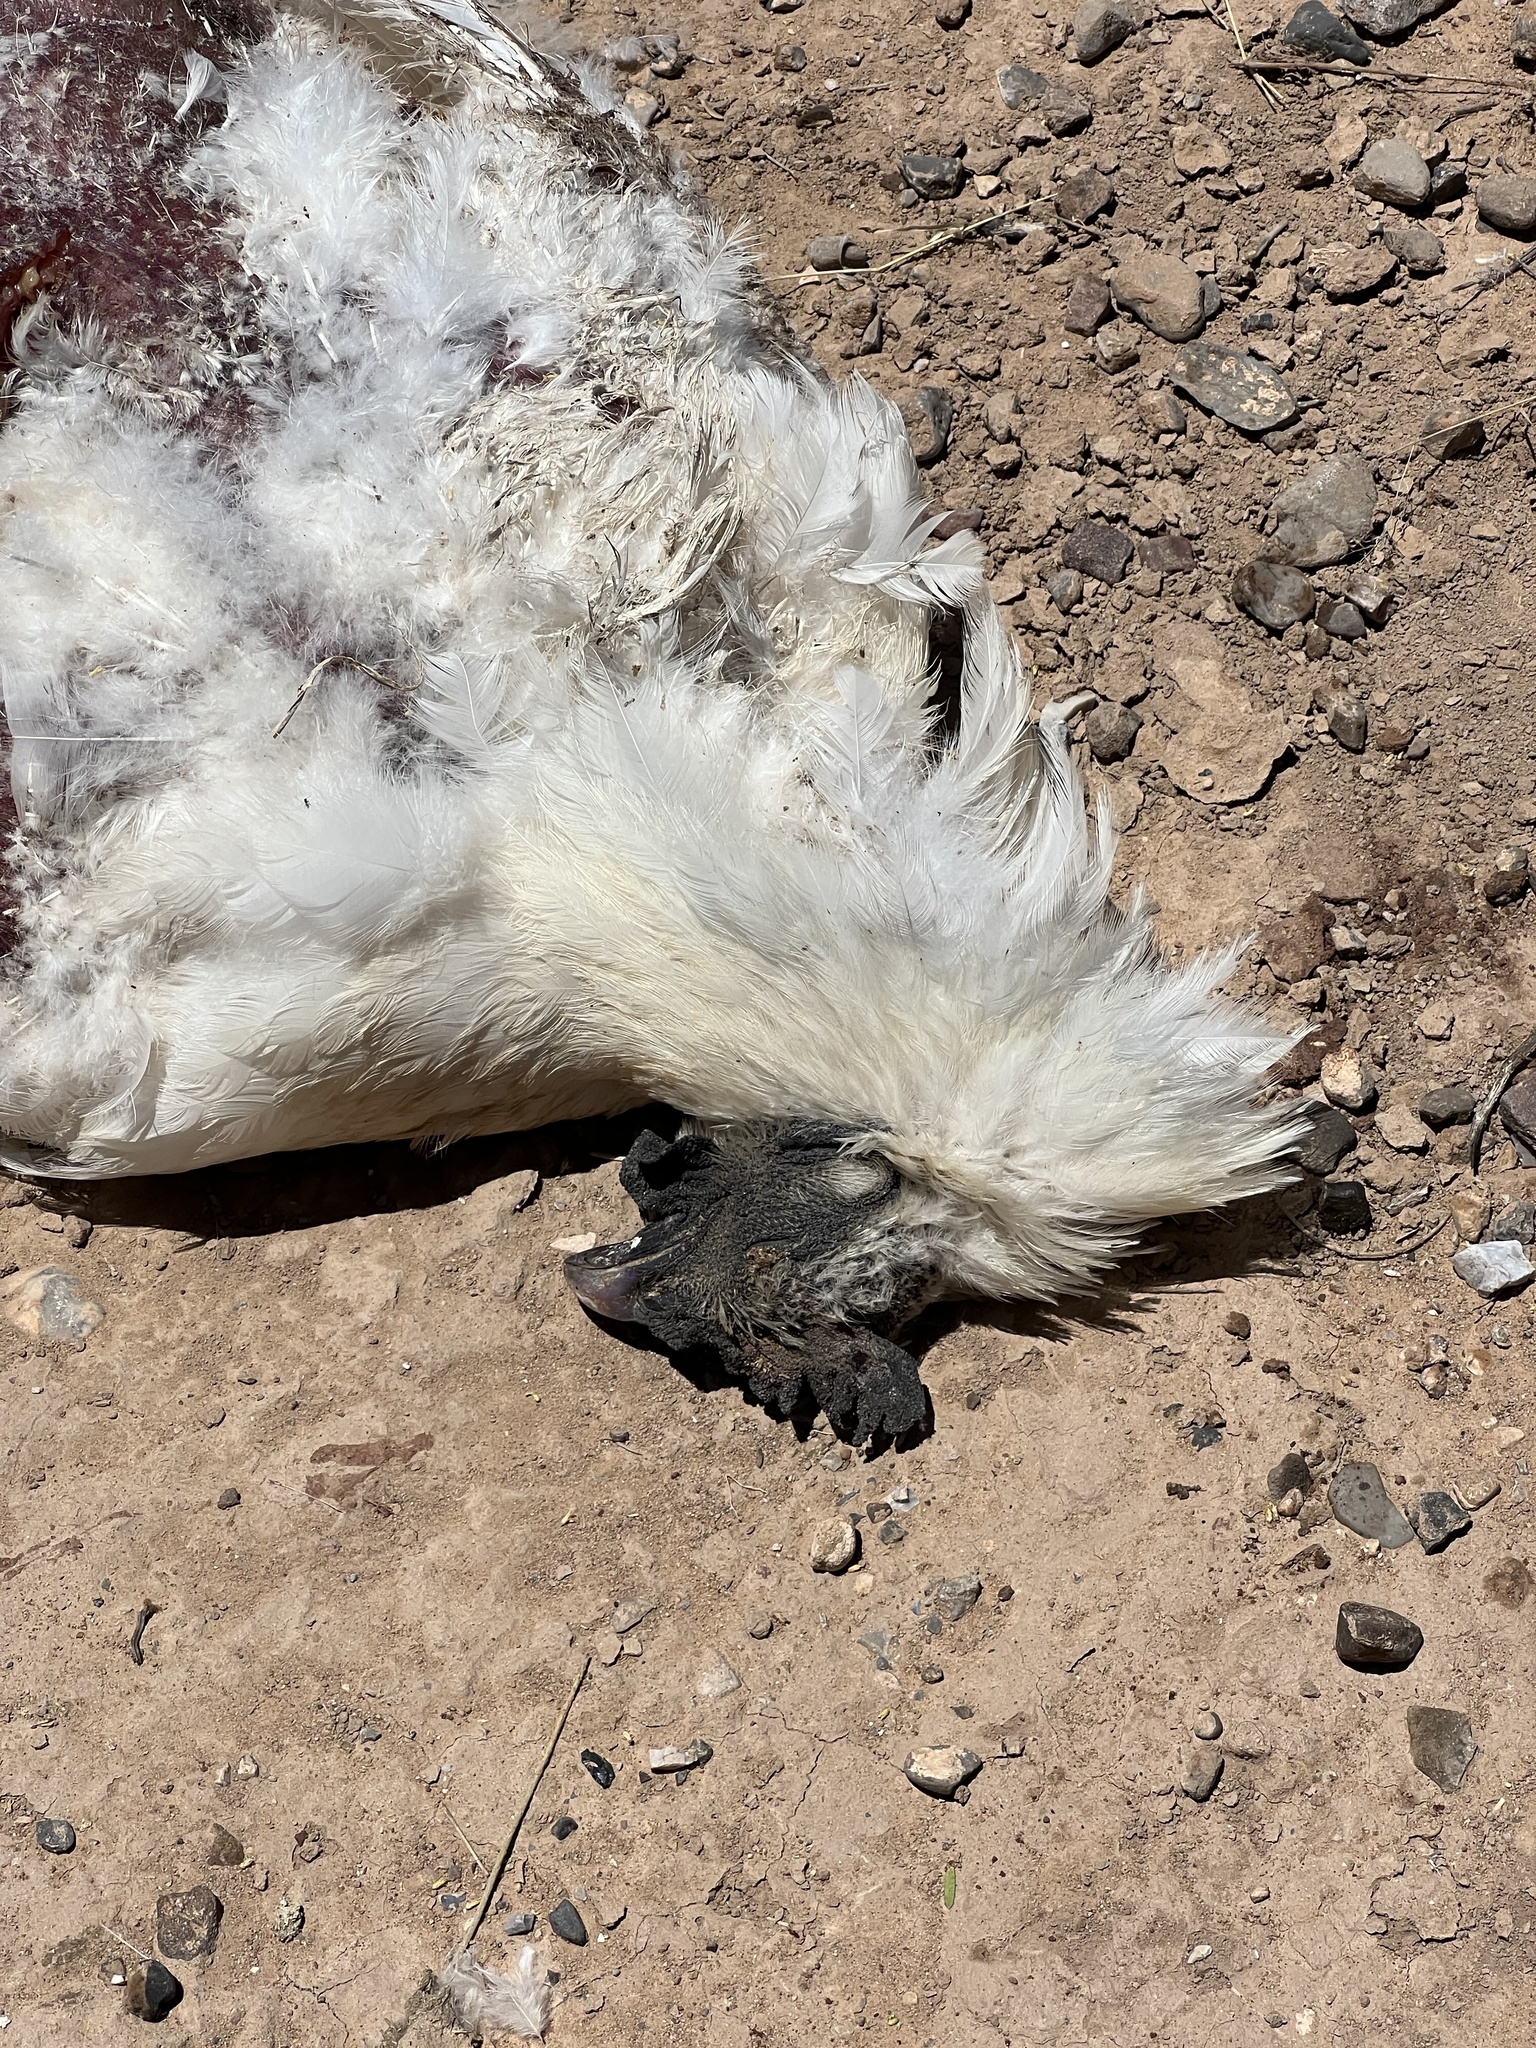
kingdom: Animalia
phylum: Chordata
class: Aves
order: Galliformes
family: Phasianidae
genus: Gallus
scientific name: Gallus gallus
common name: Red junglefowl
